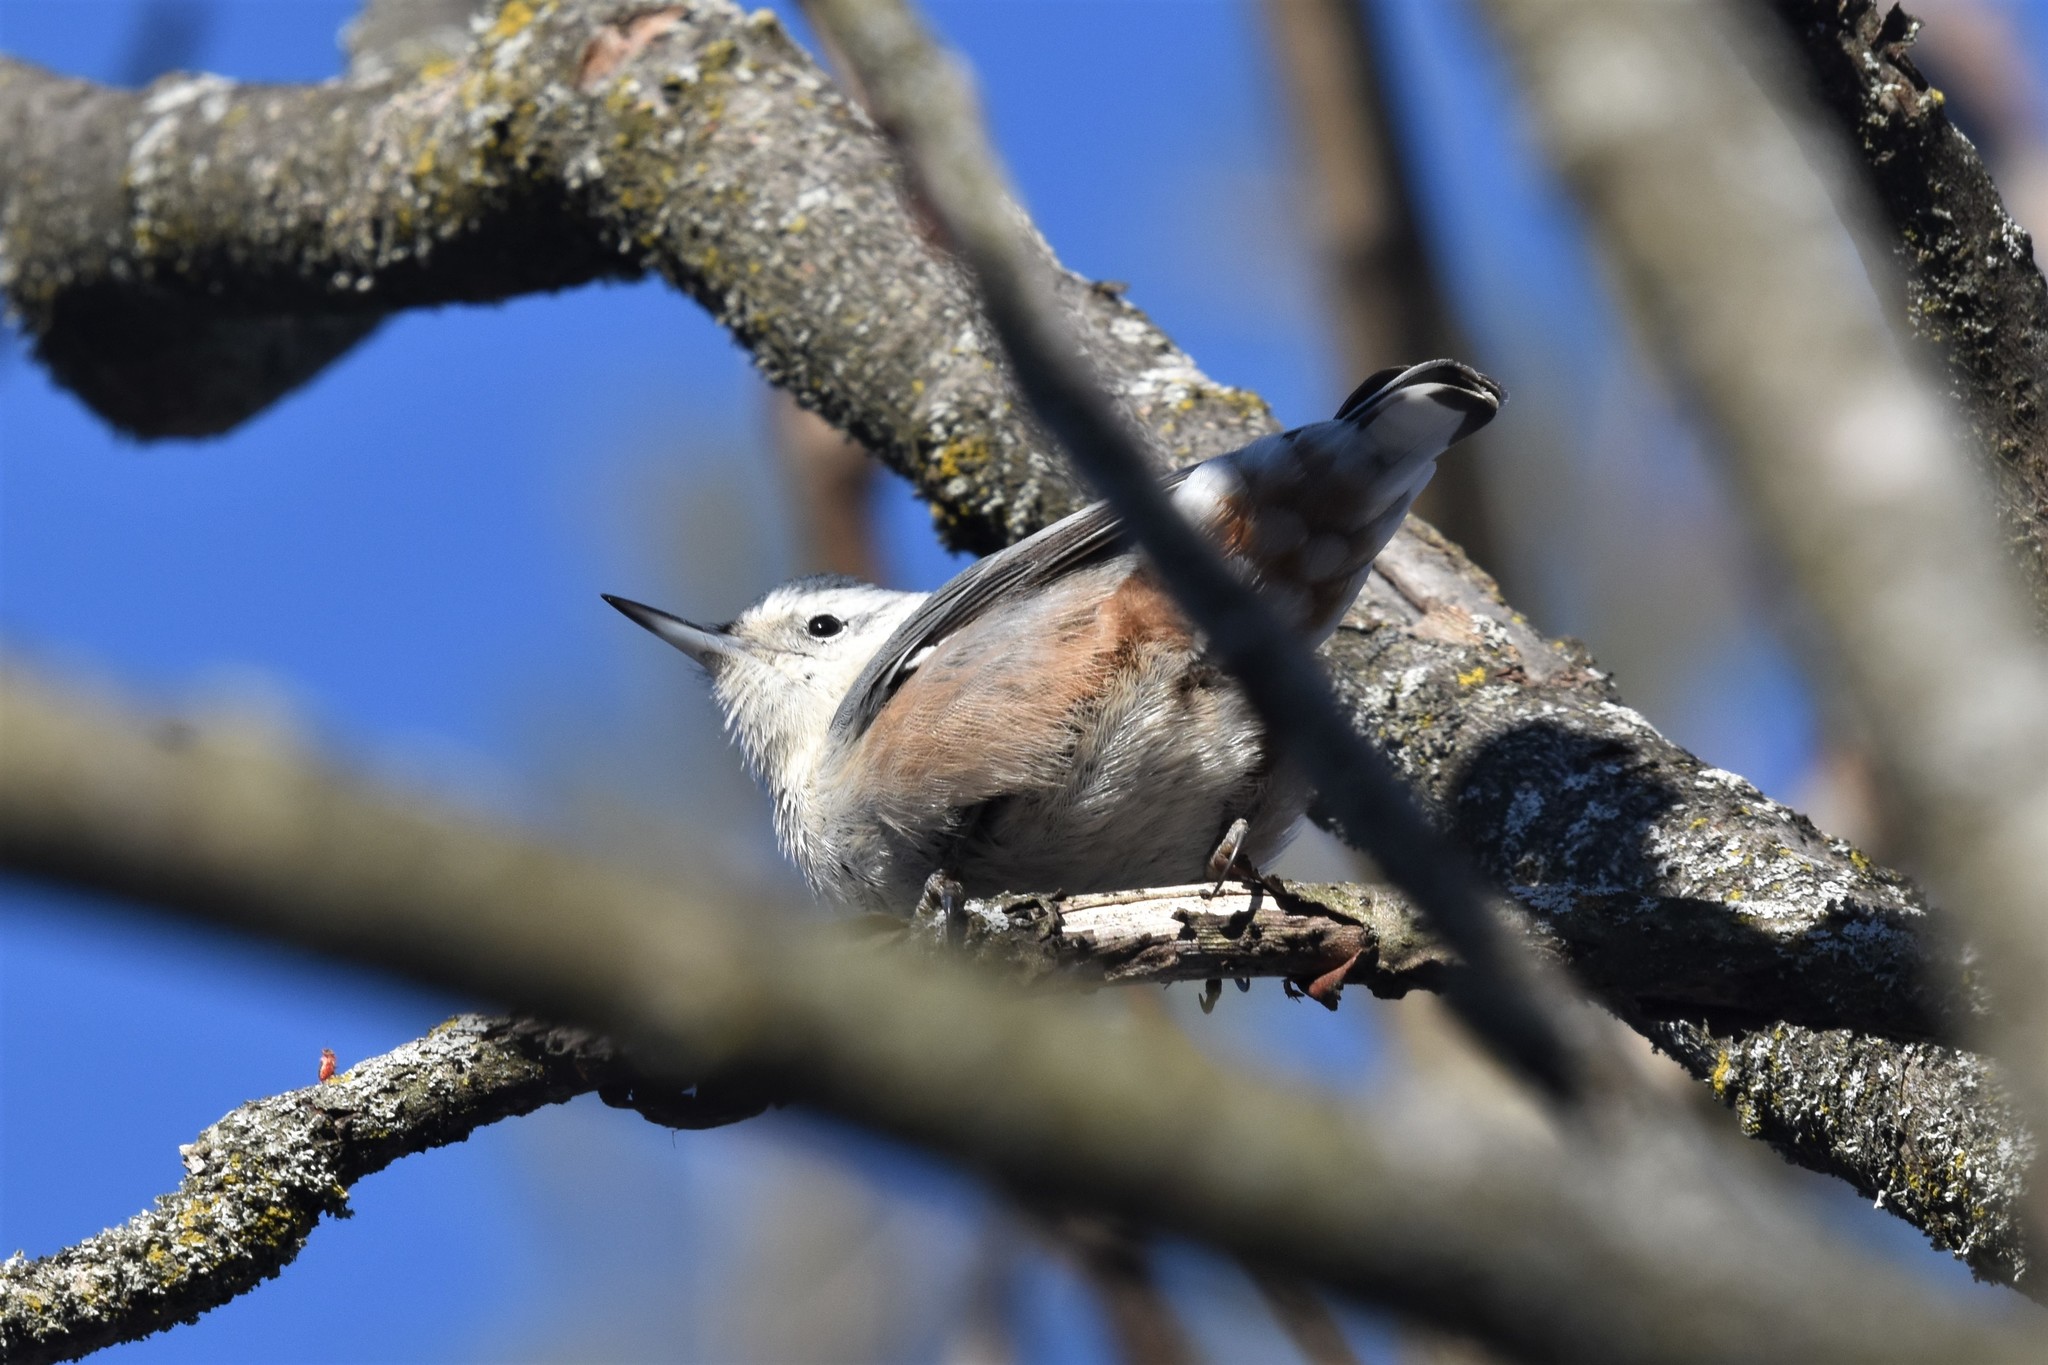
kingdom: Animalia
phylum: Chordata
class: Aves
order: Passeriformes
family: Sittidae
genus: Sitta
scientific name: Sitta carolinensis
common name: White-breasted nuthatch
